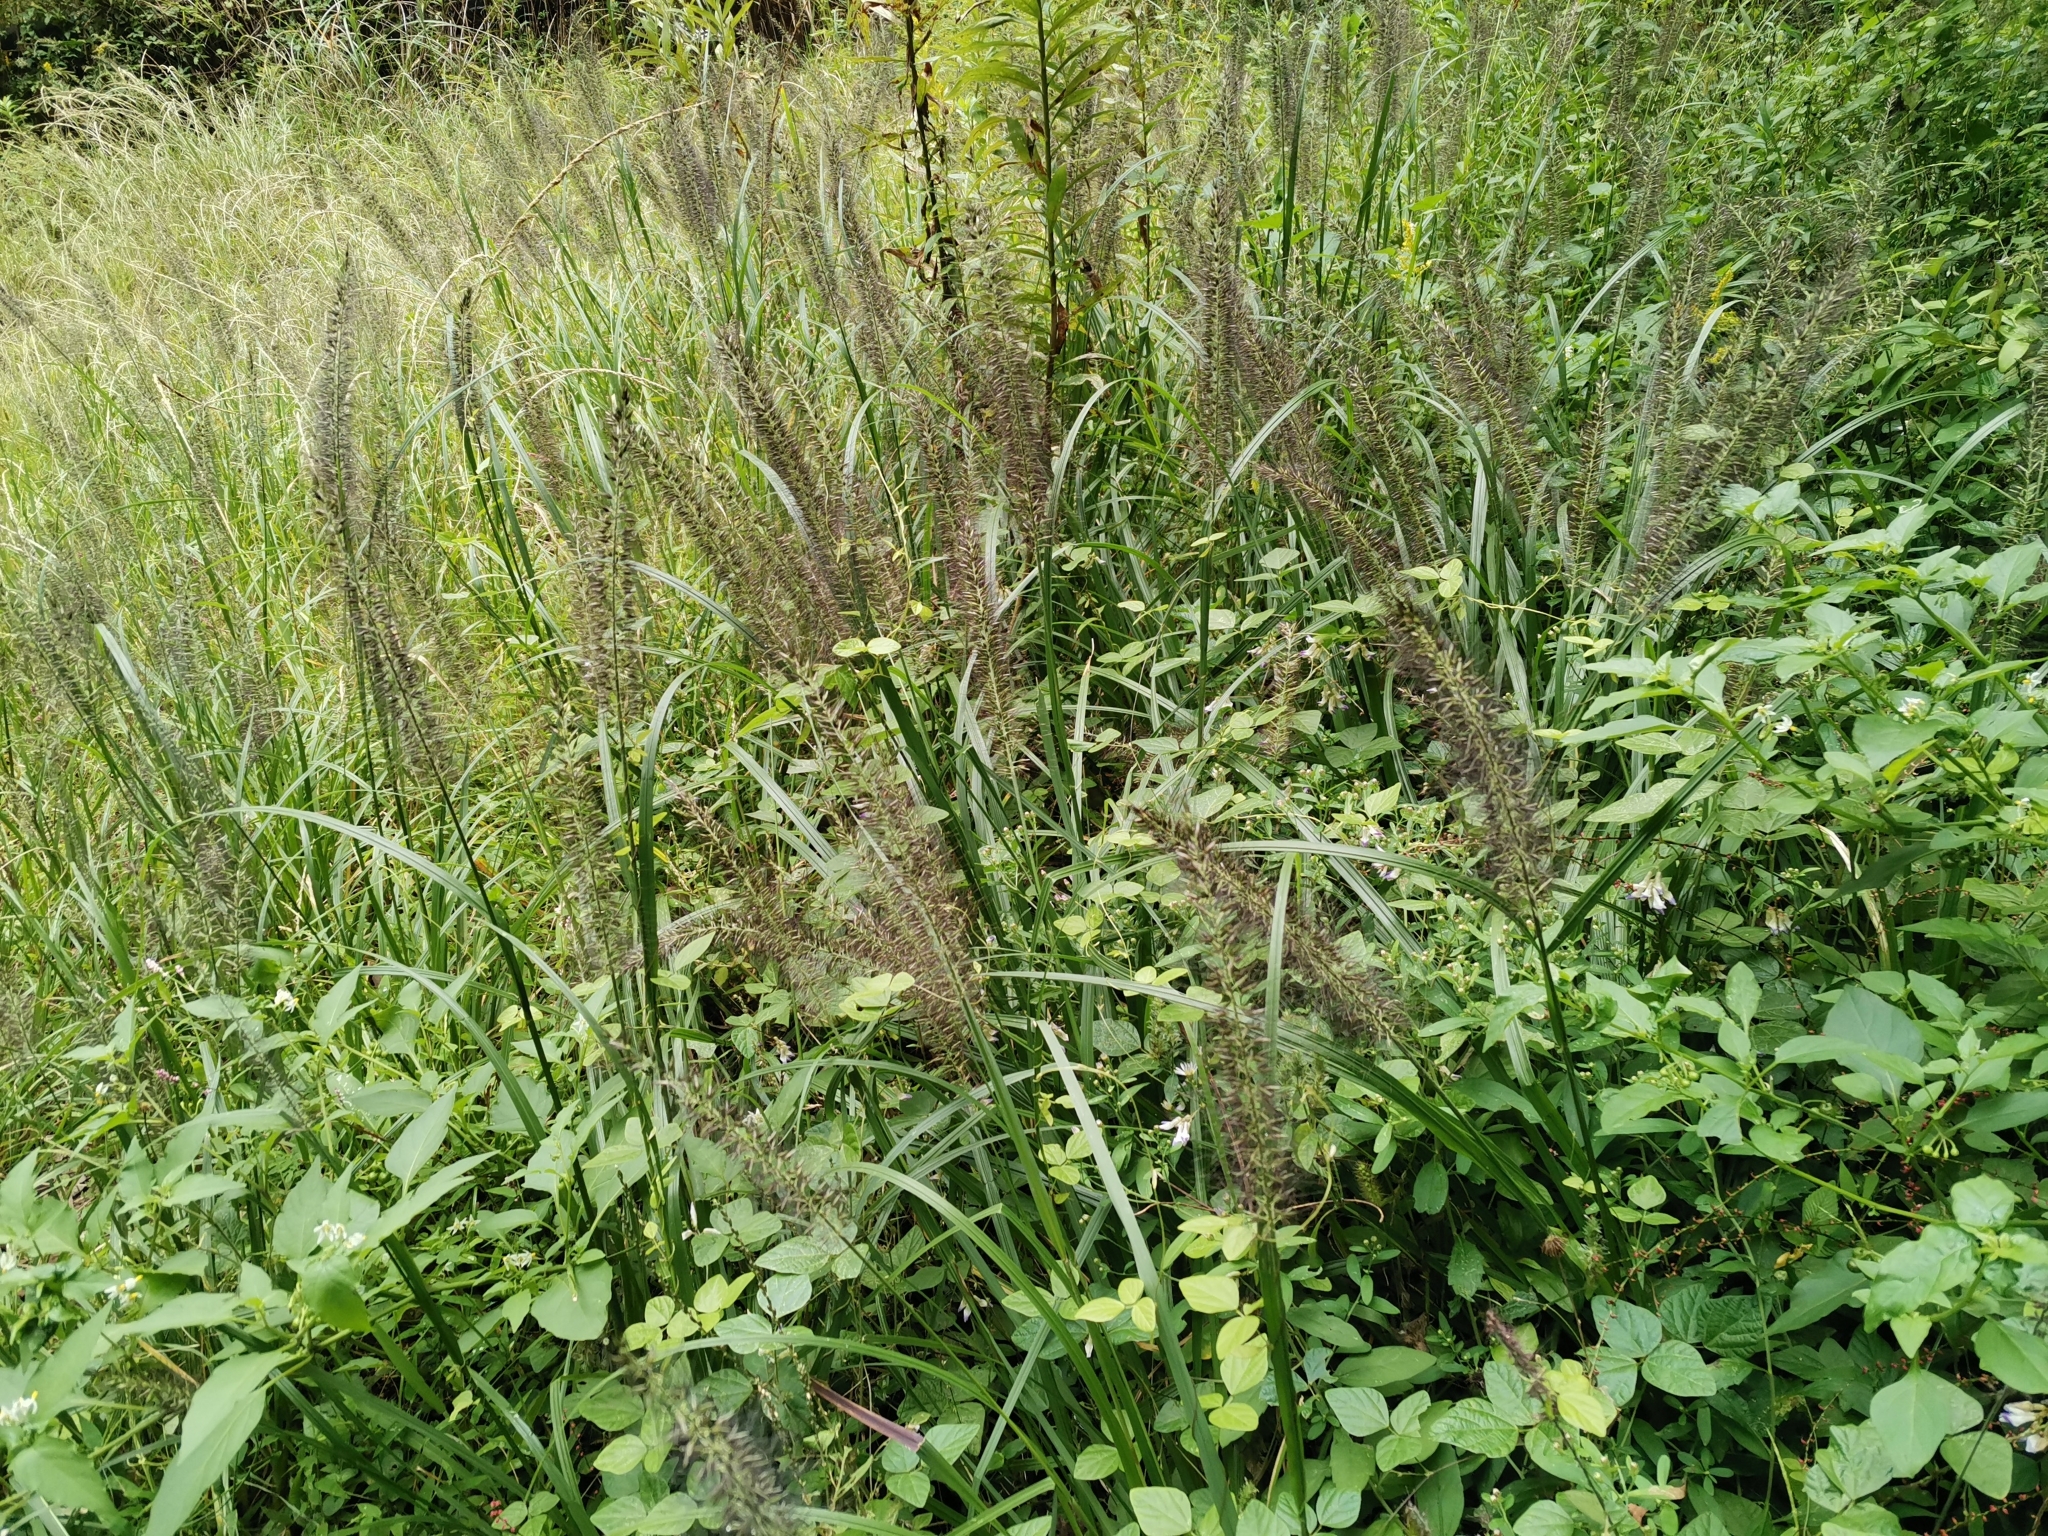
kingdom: Plantae
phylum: Tracheophyta
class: Liliopsida
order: Poales
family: Poaceae
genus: Cenchrus
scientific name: Cenchrus alopecuroides
